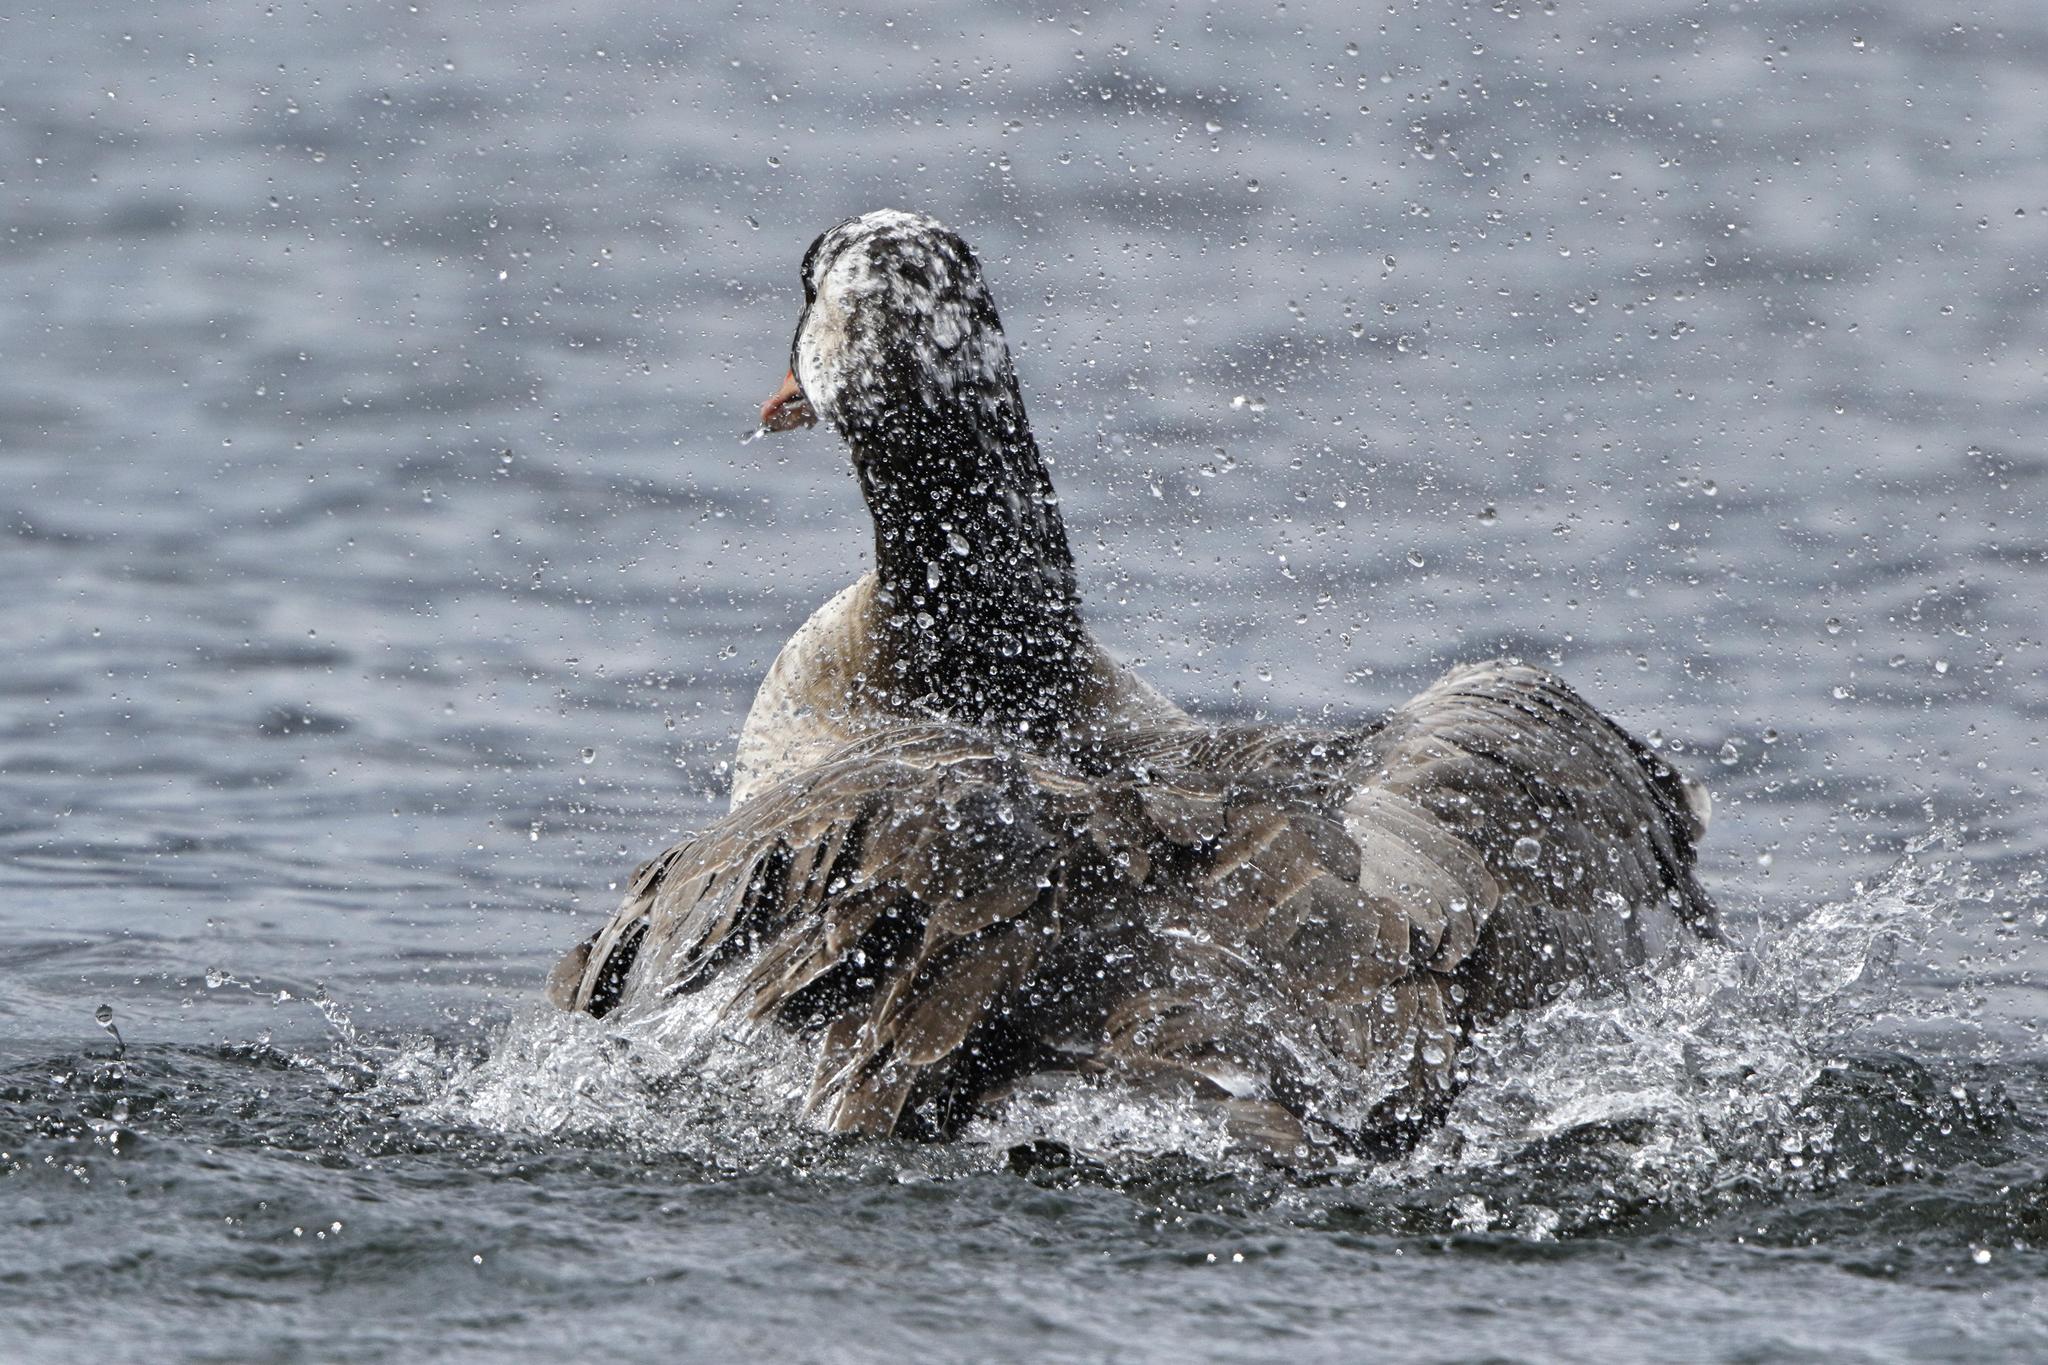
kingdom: Animalia
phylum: Chordata
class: Aves
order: Anseriformes
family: Anatidae
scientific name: Anatidae
